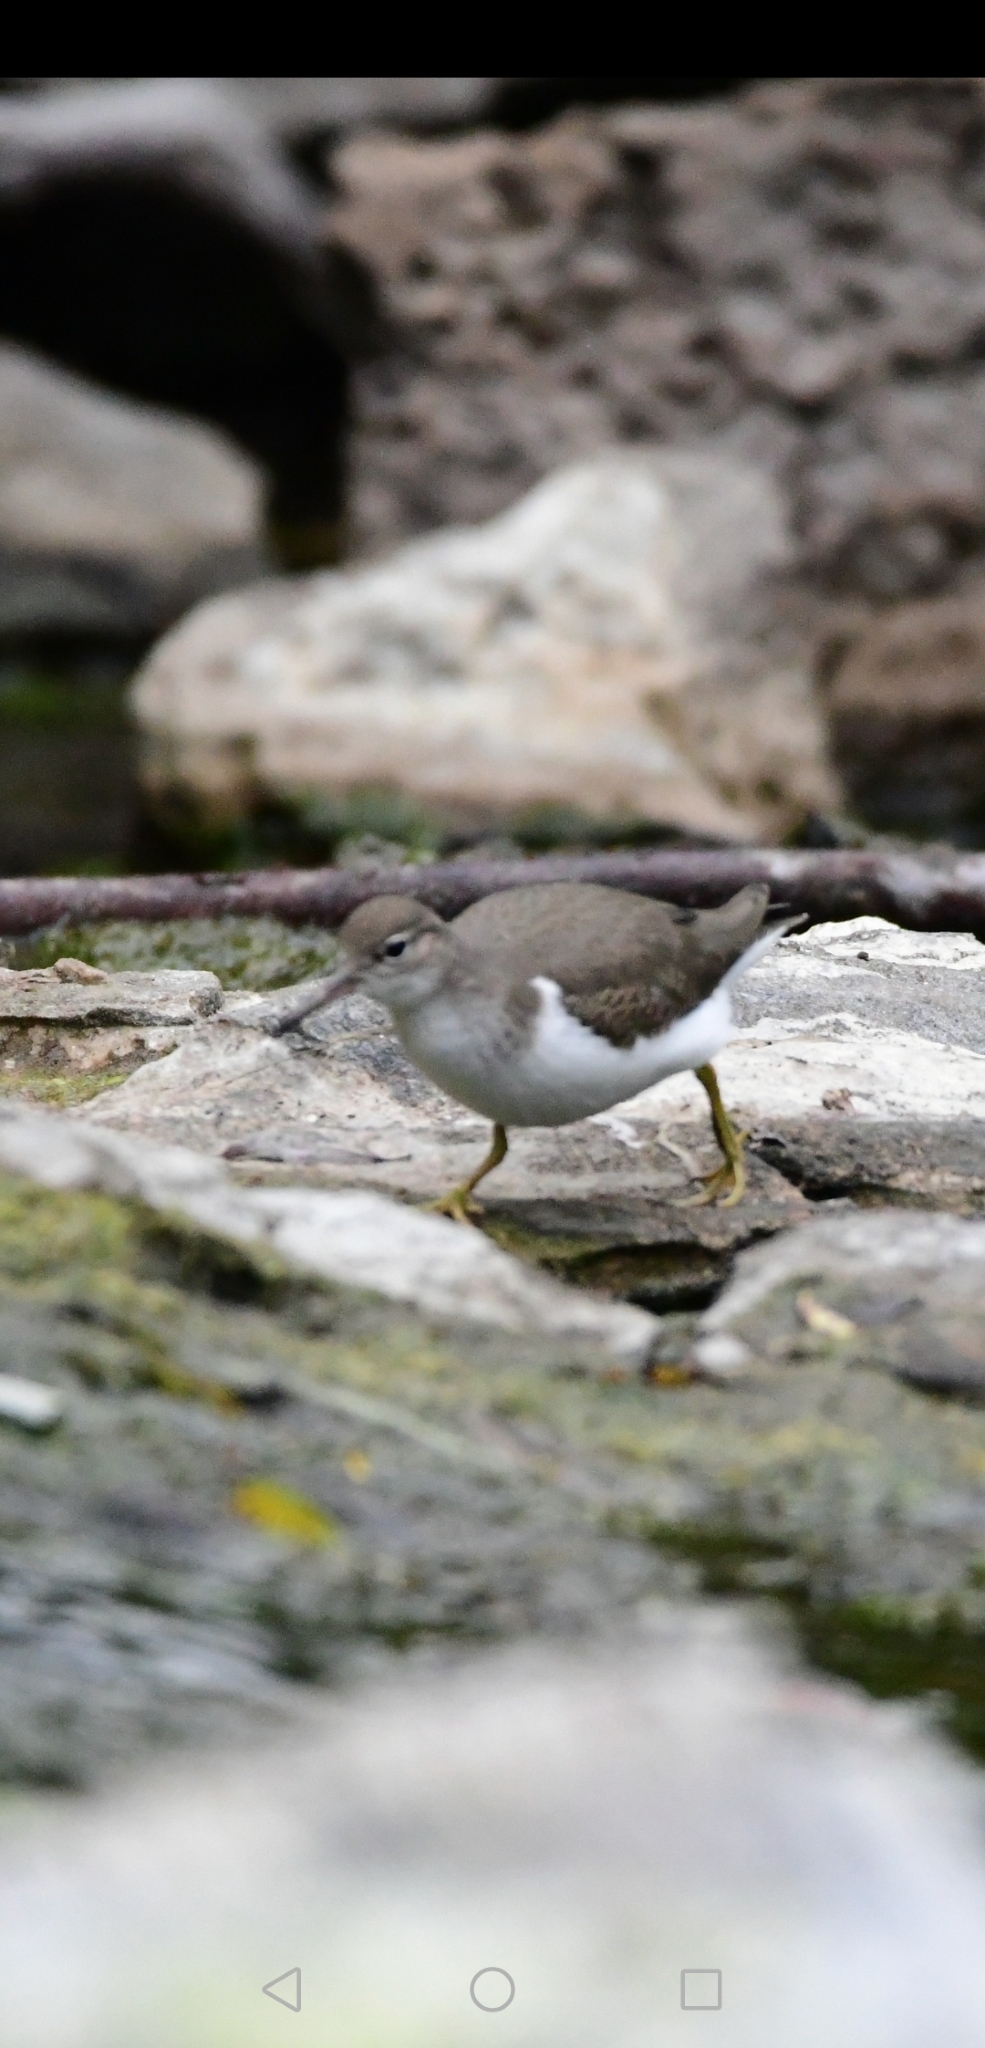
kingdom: Animalia
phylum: Chordata
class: Aves
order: Charadriiformes
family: Scolopacidae
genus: Actitis
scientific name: Actitis macularius
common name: Spotted sandpiper
